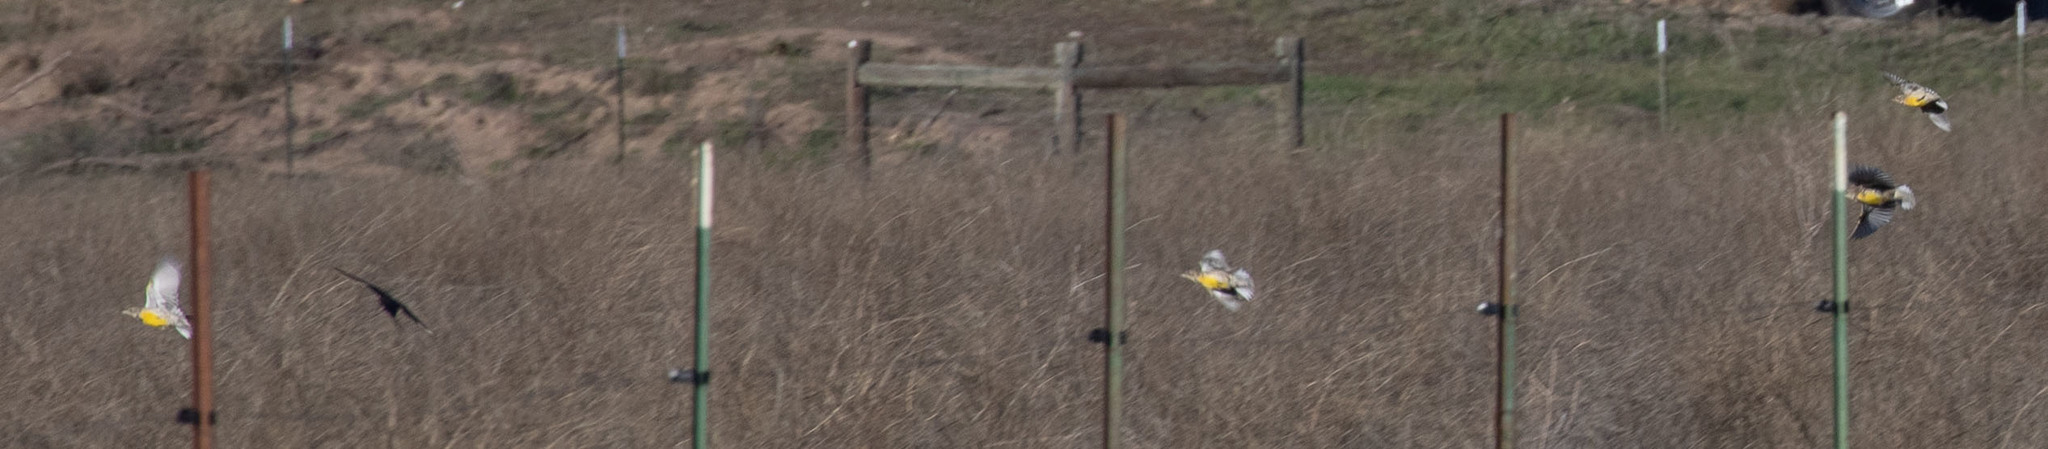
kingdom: Animalia
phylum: Chordata
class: Aves
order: Passeriformes
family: Icteridae
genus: Sturnella
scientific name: Sturnella neglecta
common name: Western meadowlark
